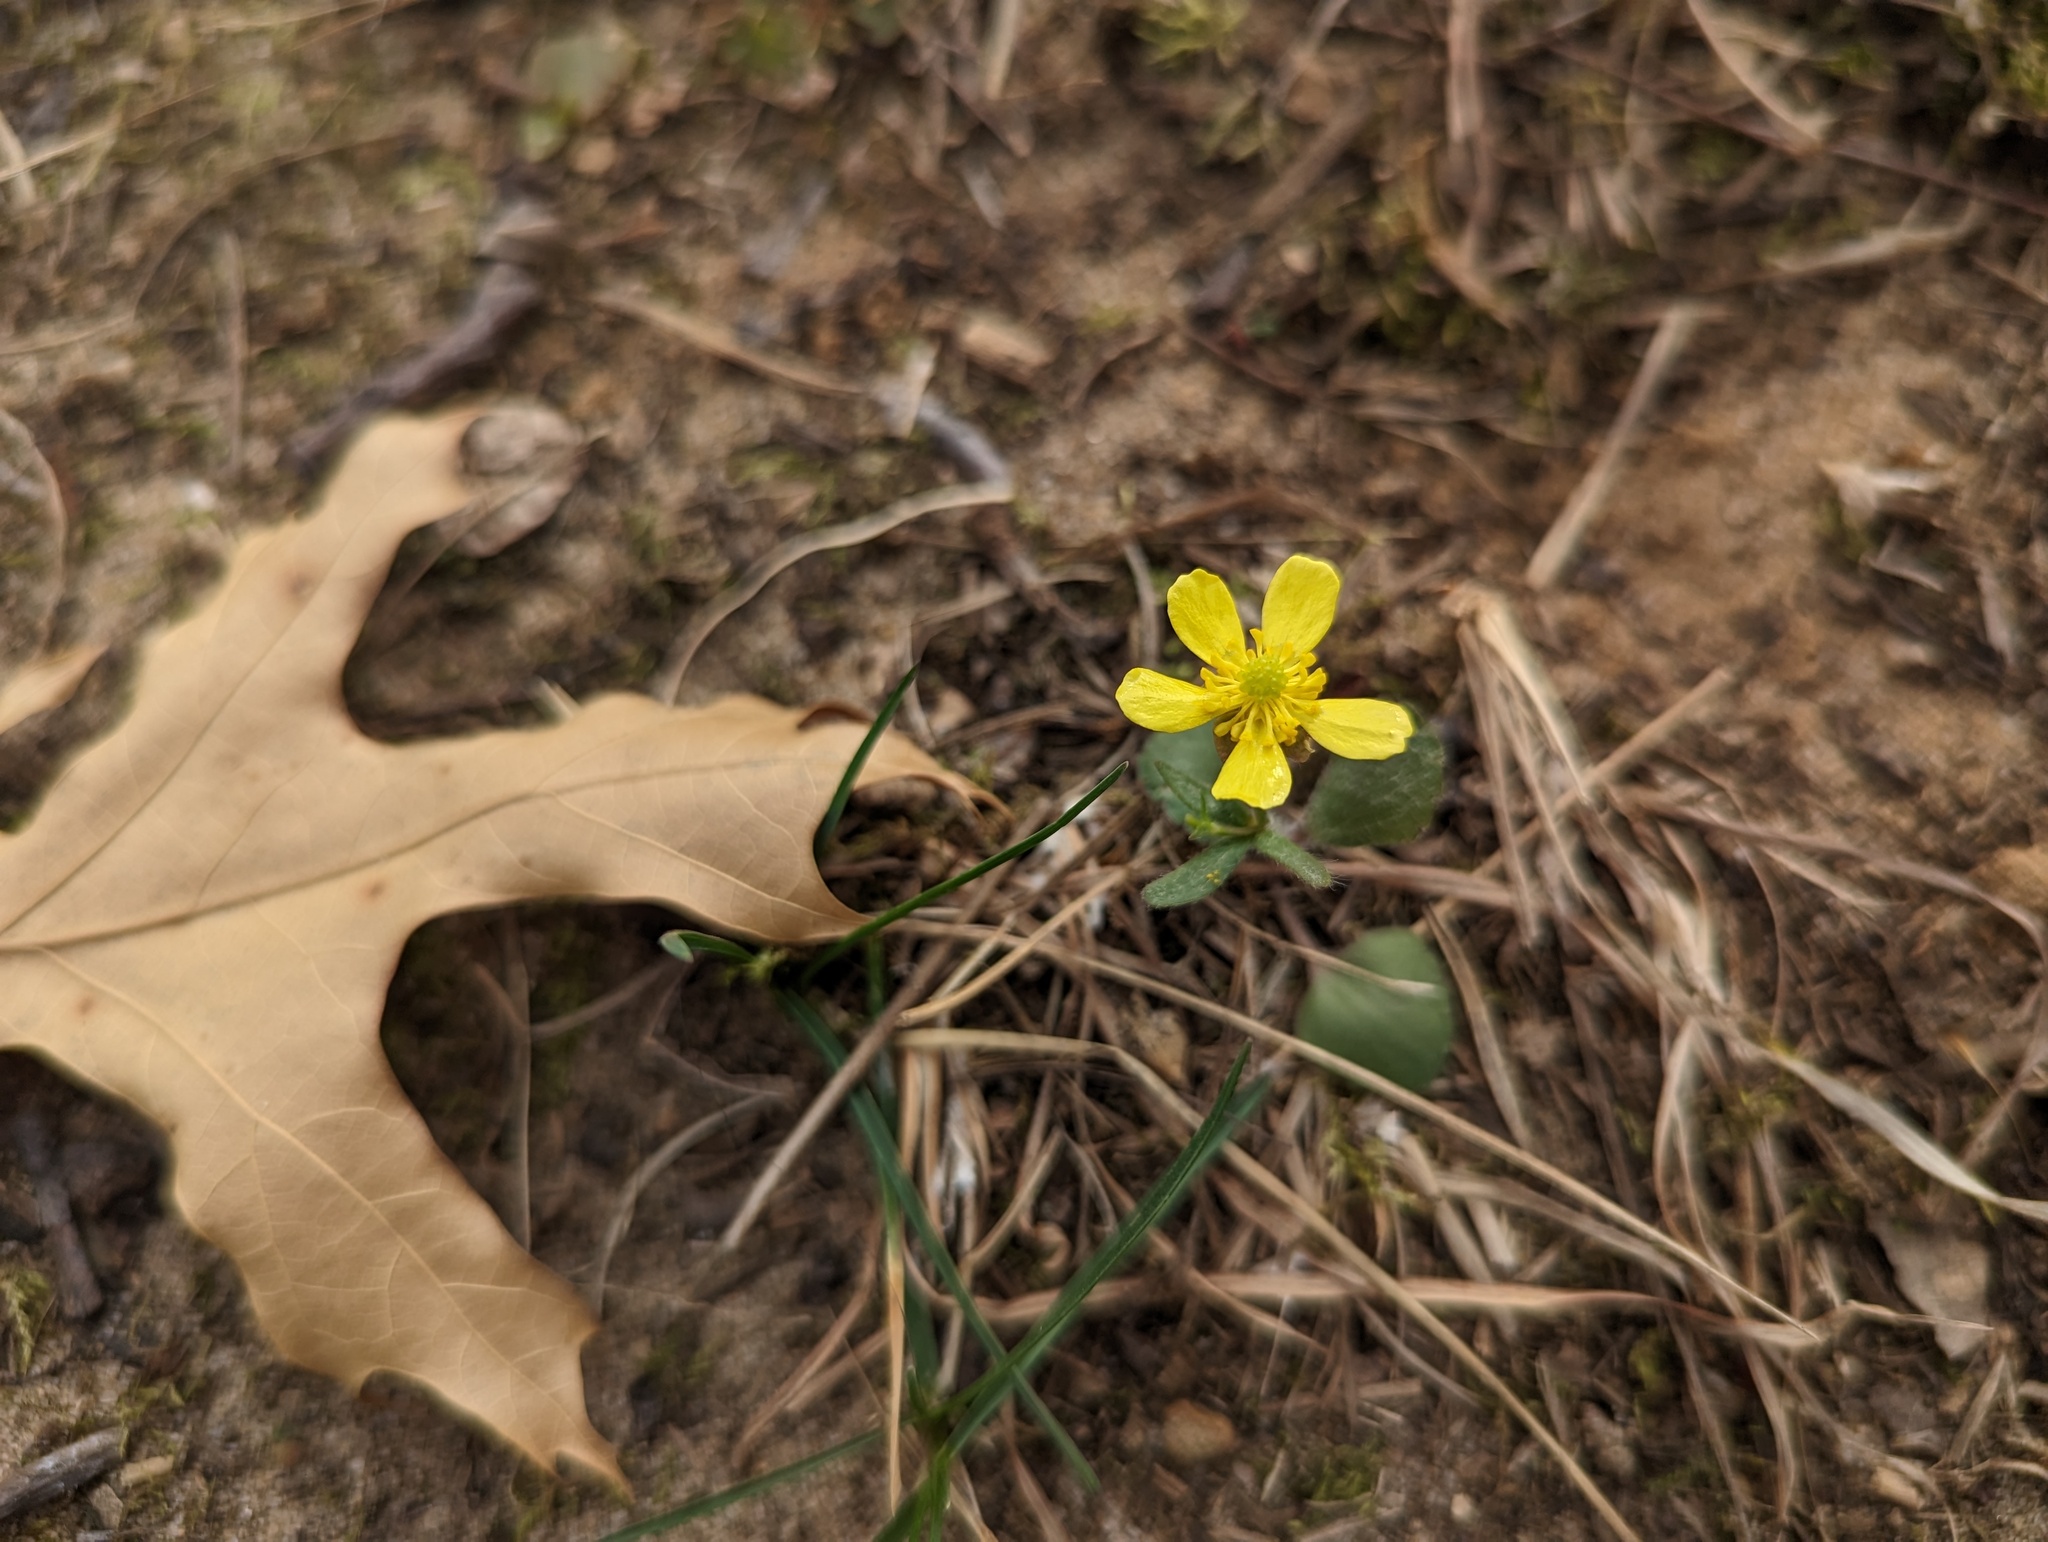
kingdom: Plantae
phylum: Tracheophyta
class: Magnoliopsida
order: Ranunculales
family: Ranunculaceae
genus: Ranunculus
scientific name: Ranunculus rhomboideus
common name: Prairie buttercup
